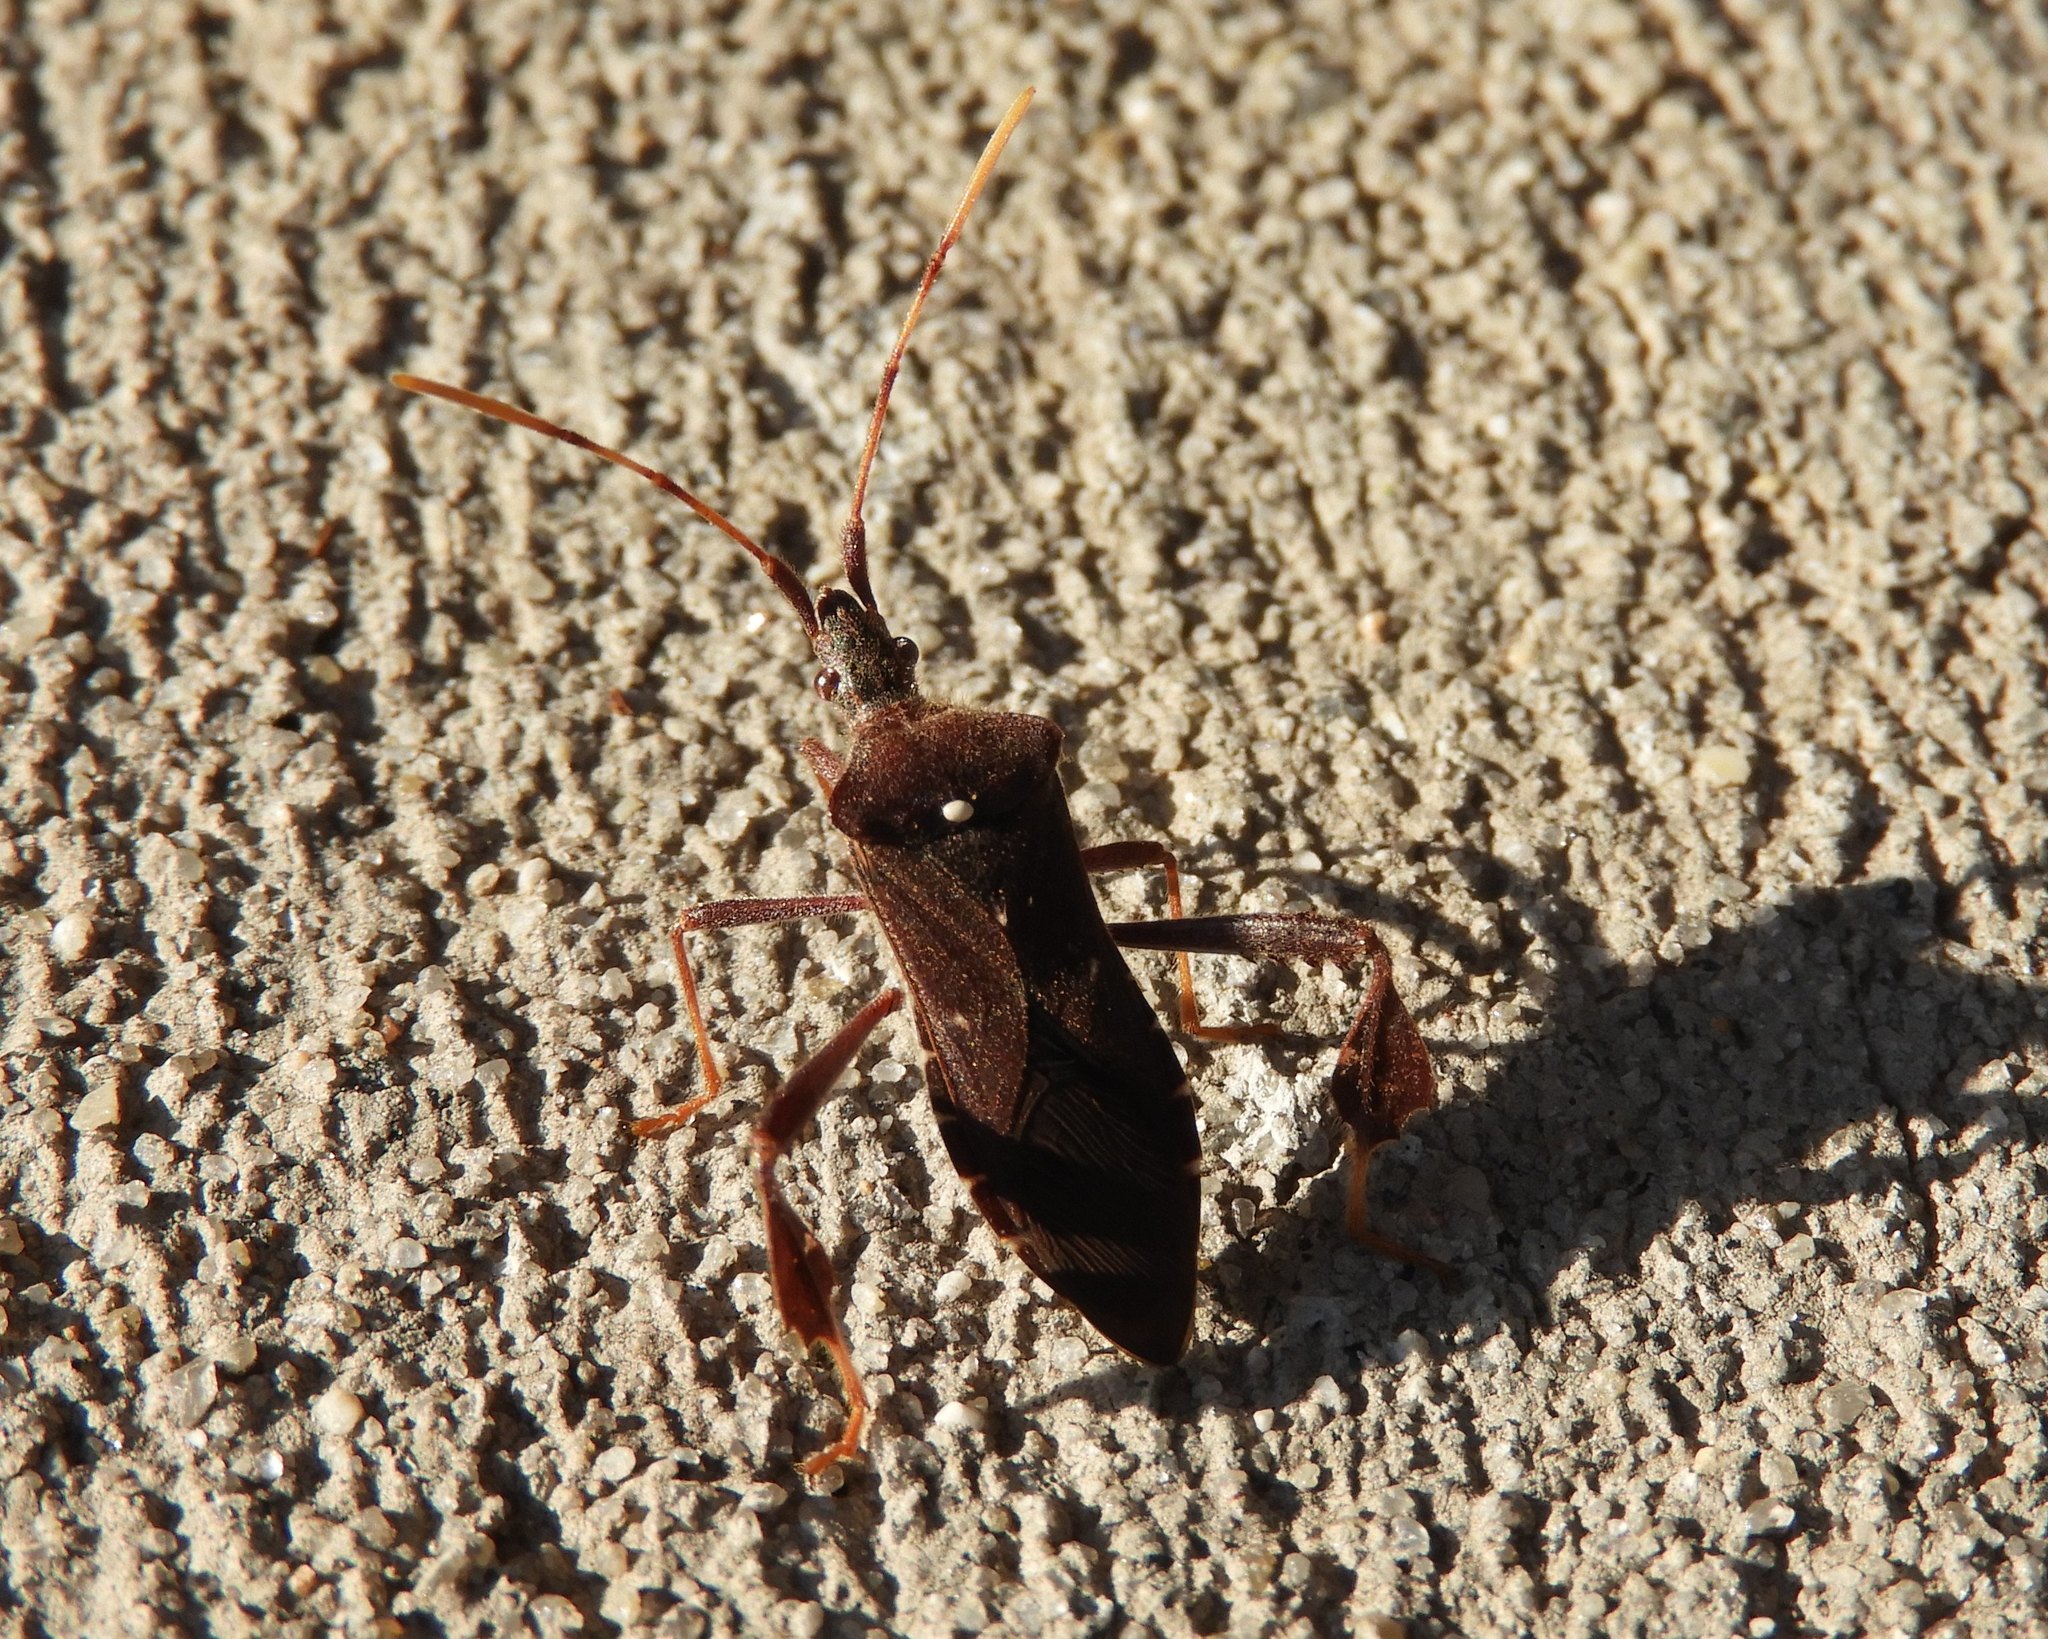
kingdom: Animalia
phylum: Arthropoda
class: Insecta
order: Hemiptera
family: Coreidae
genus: Leptoglossus
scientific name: Leptoglossus oppositus
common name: Northern leaf-footed bug
